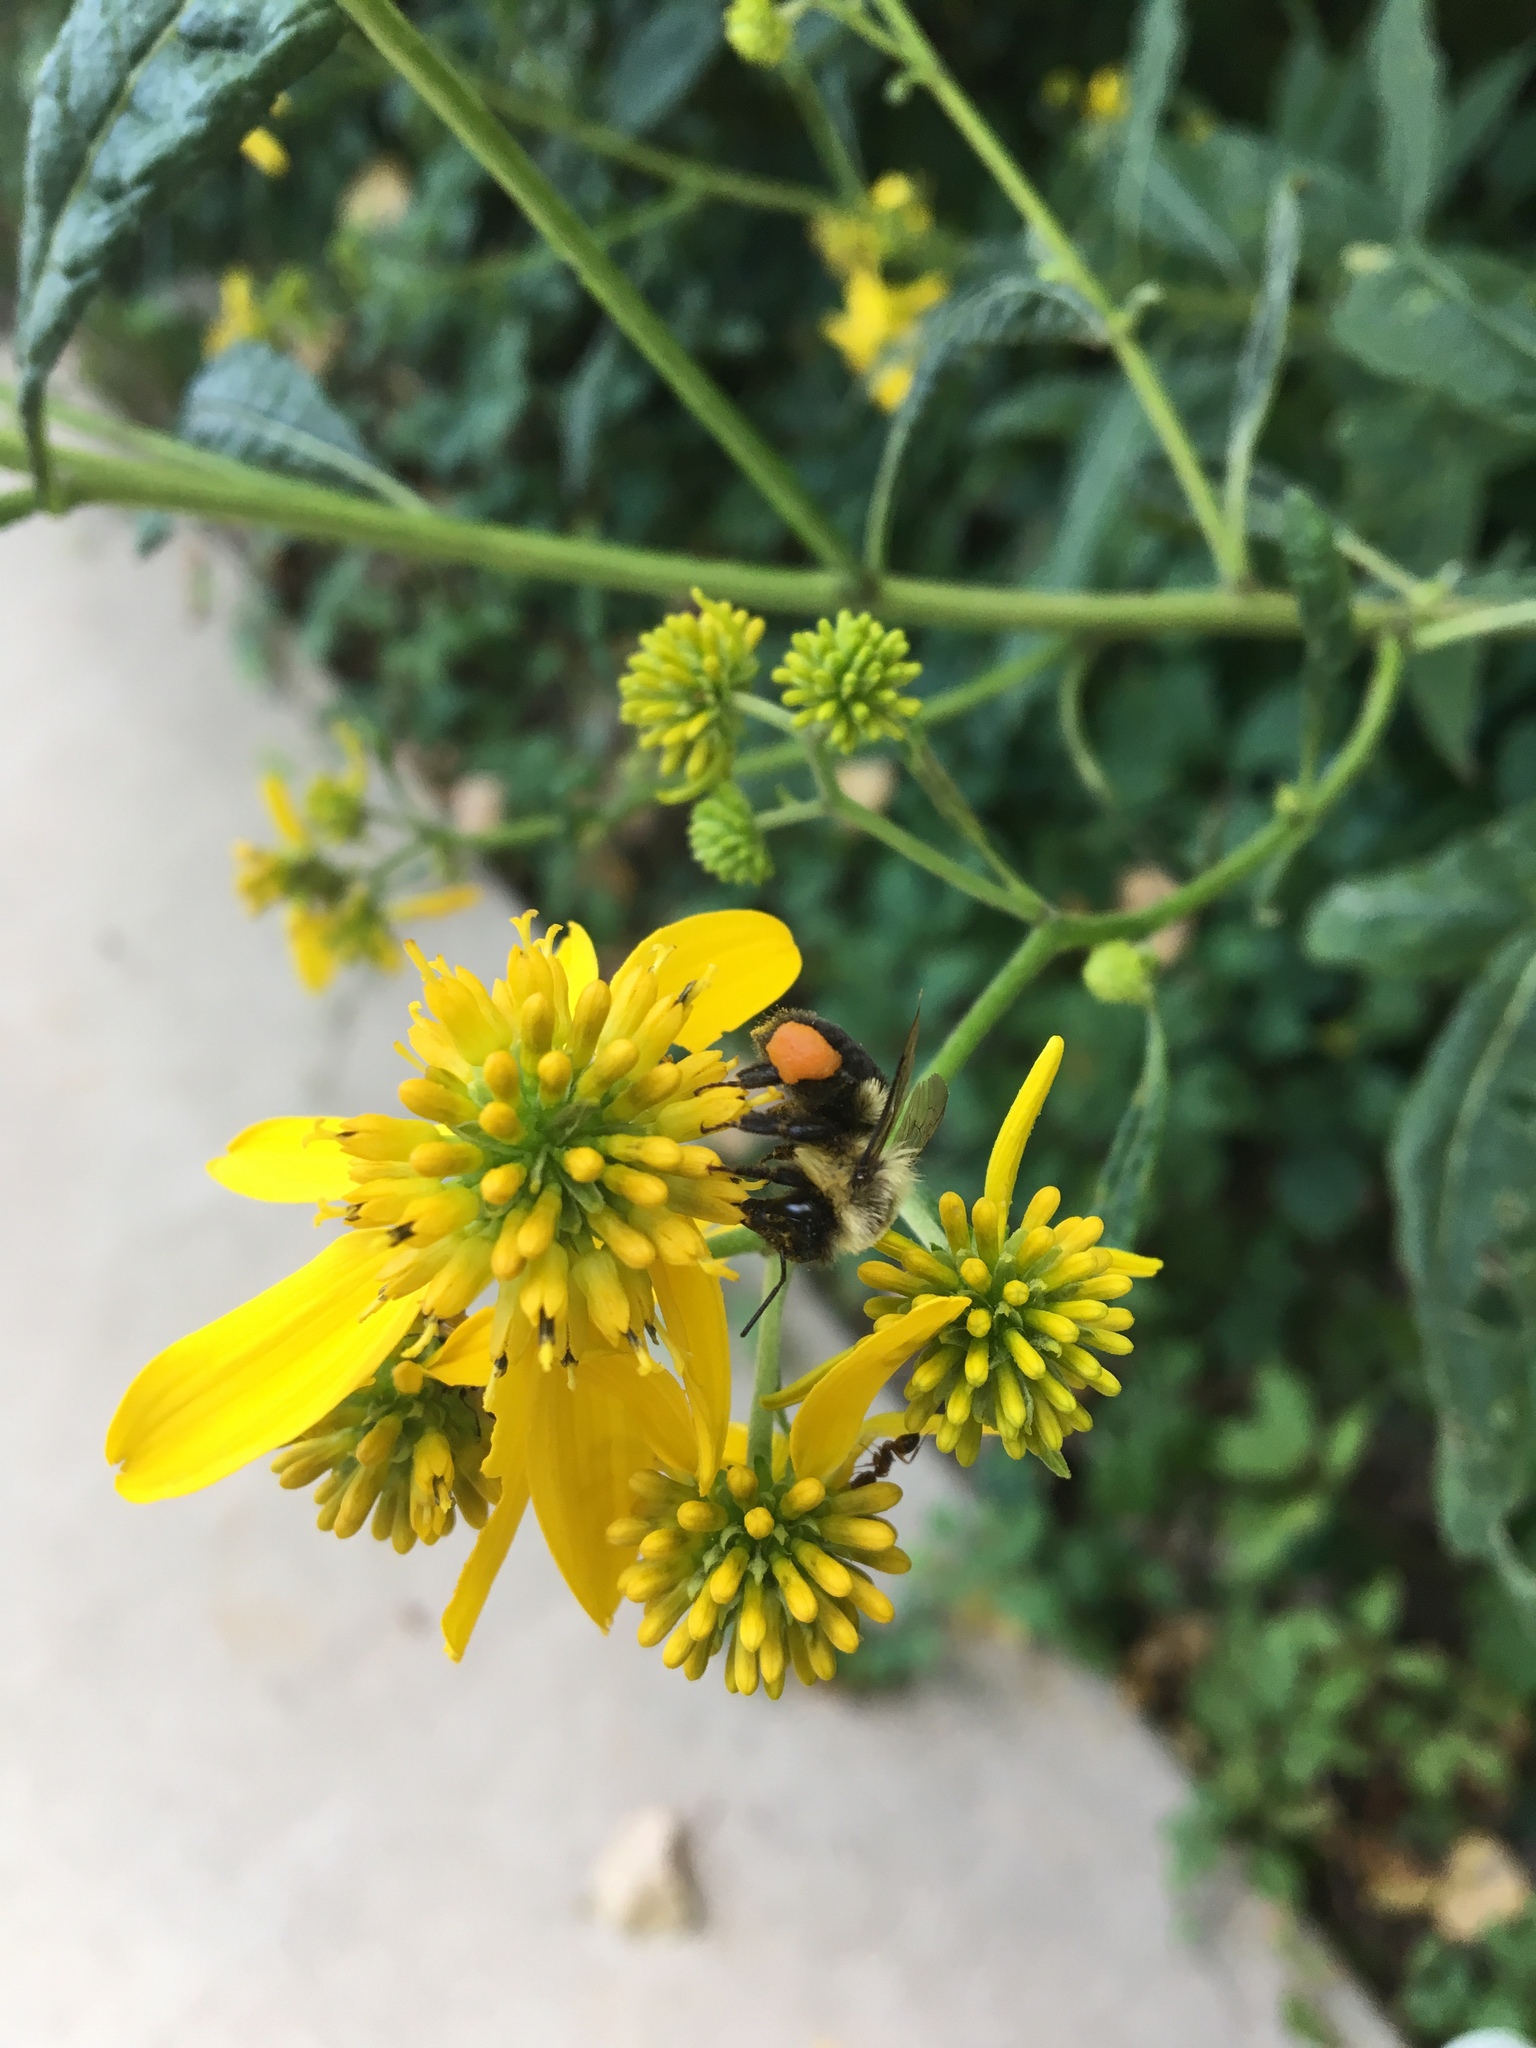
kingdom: Animalia
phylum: Arthropoda
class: Insecta
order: Hymenoptera
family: Apidae
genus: Bombus
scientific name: Bombus impatiens
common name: Common eastern bumble bee
